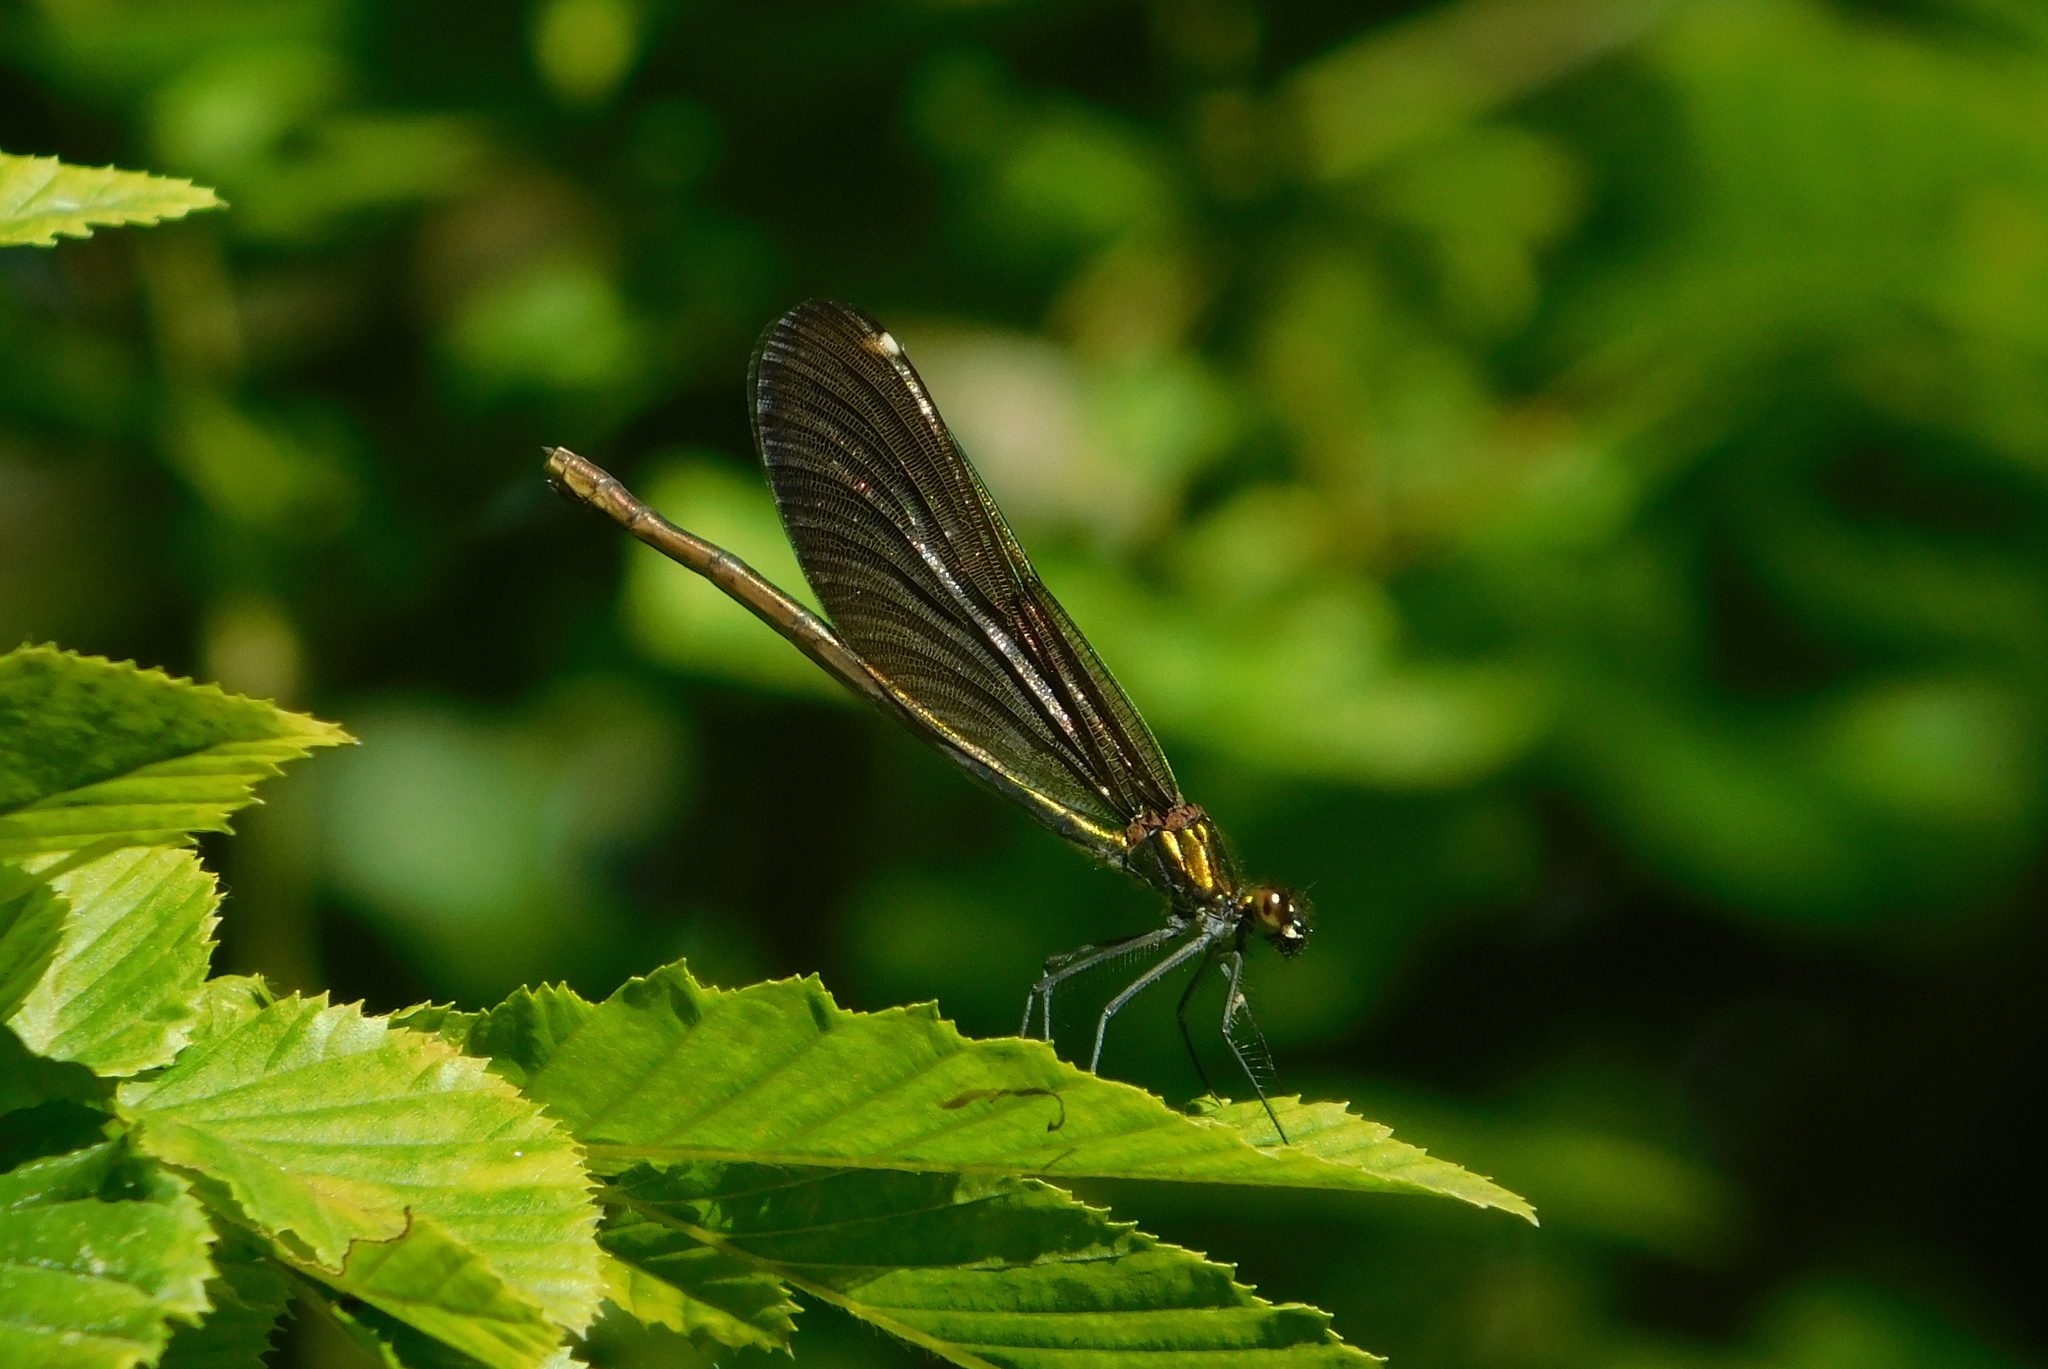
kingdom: Animalia
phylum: Arthropoda
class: Insecta
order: Odonata
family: Calopterygidae
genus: Calopteryx
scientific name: Calopteryx virgo
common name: Beautiful demoiselle
